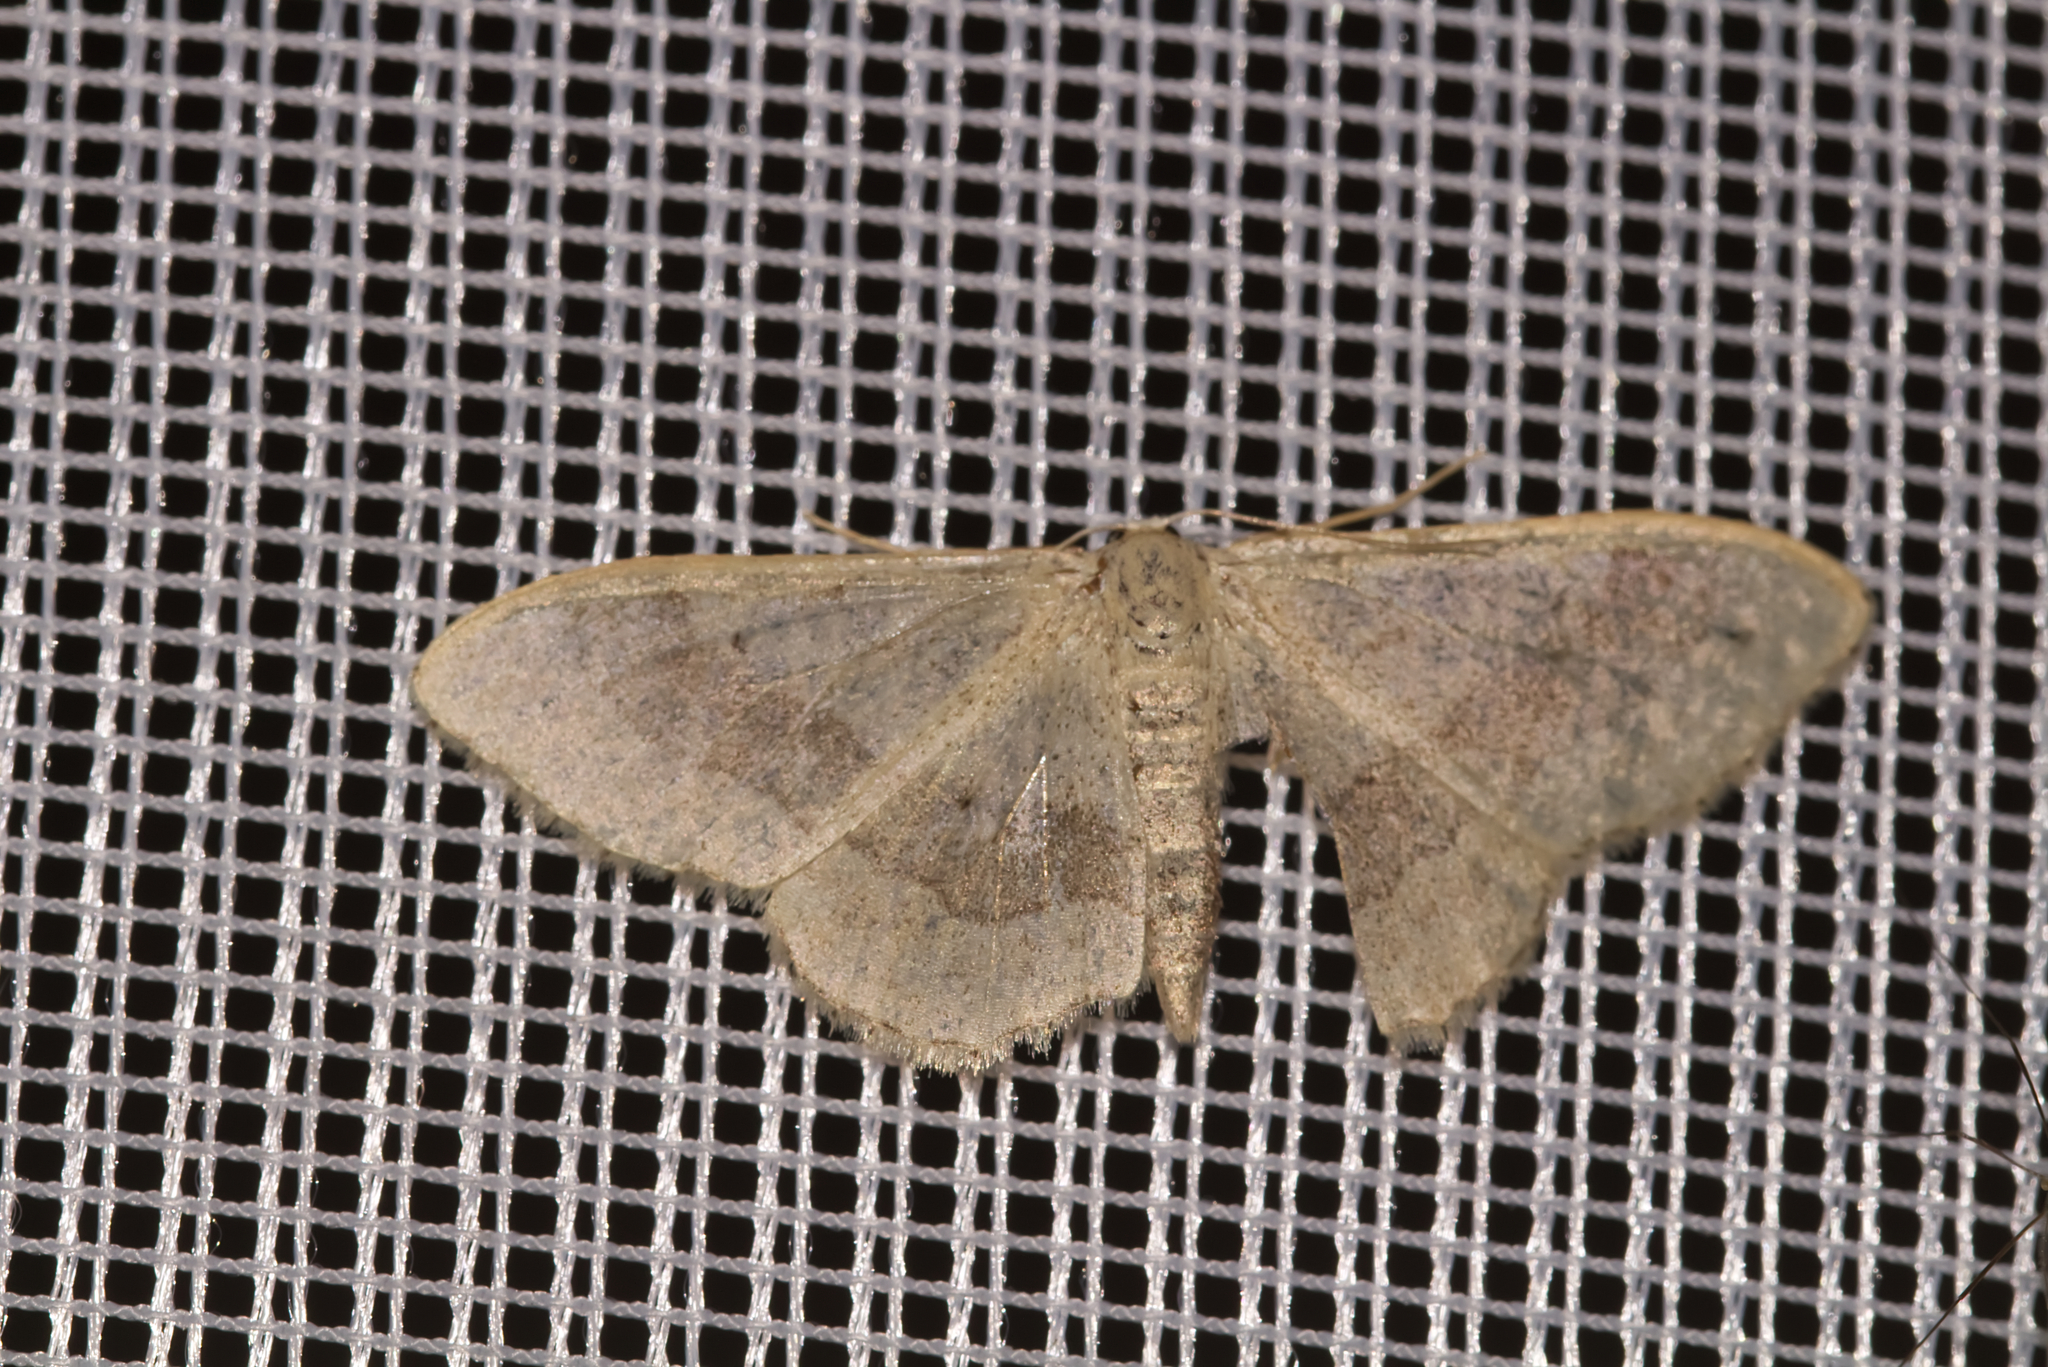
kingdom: Animalia
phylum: Arthropoda
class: Insecta
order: Lepidoptera
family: Geometridae
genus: Idaea
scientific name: Idaea aversata
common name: Riband wave
